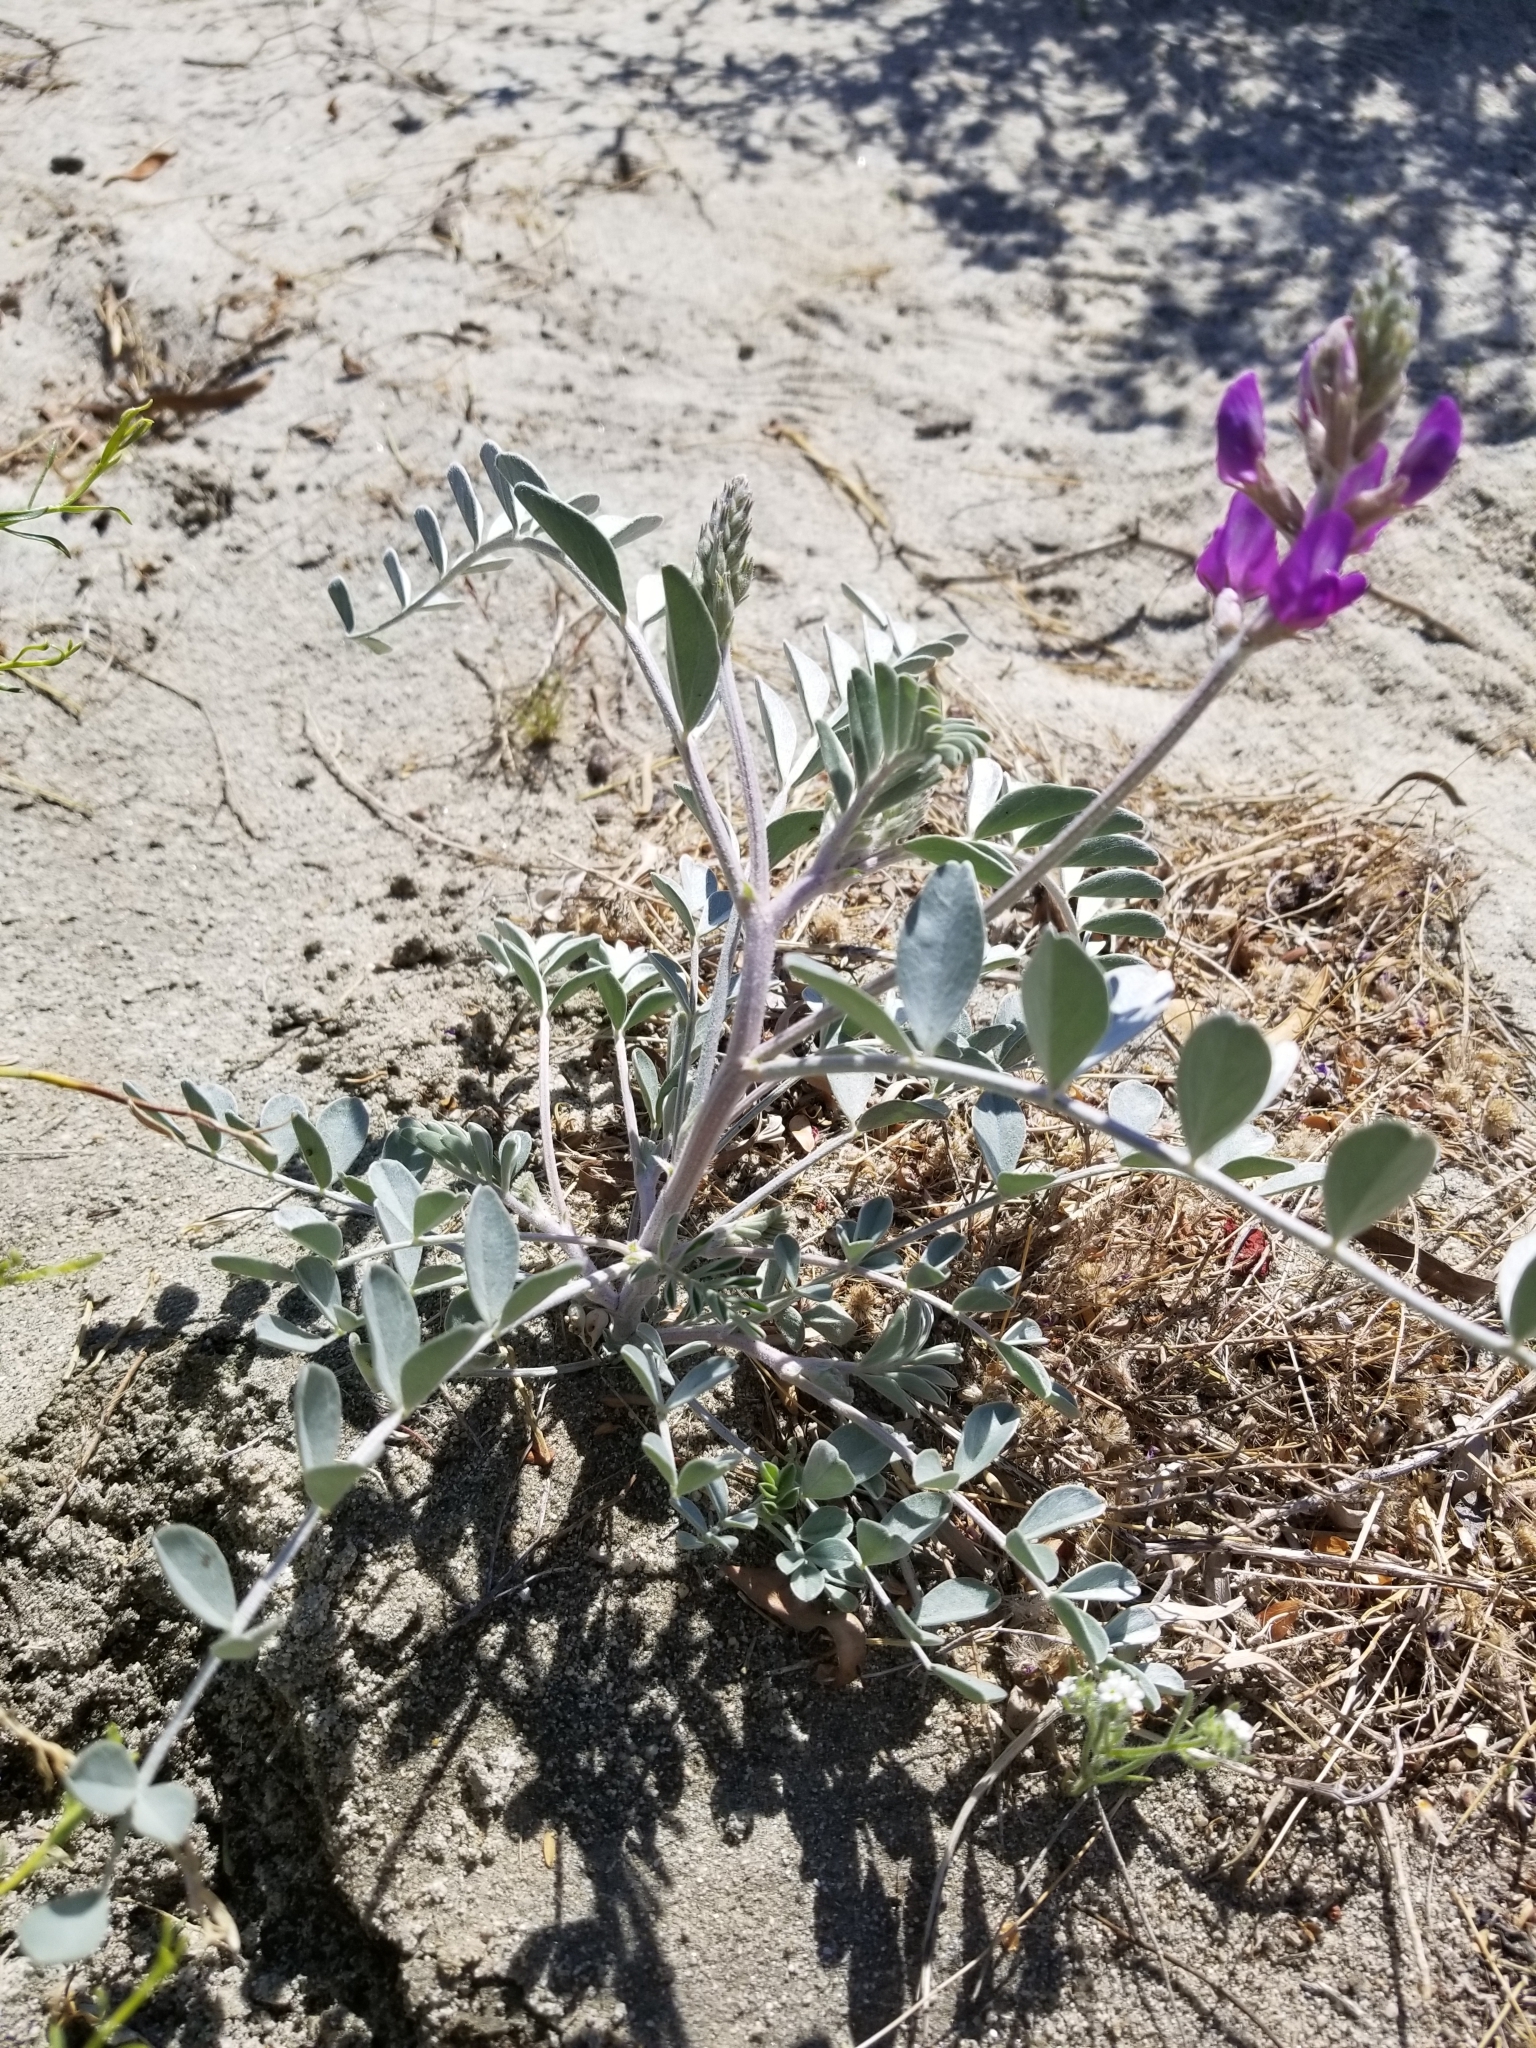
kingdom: Plantae
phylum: Tracheophyta
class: Magnoliopsida
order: Fabales
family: Fabaceae
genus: Astragalus
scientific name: Astragalus lentiginosus
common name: Freckled milkvetch
